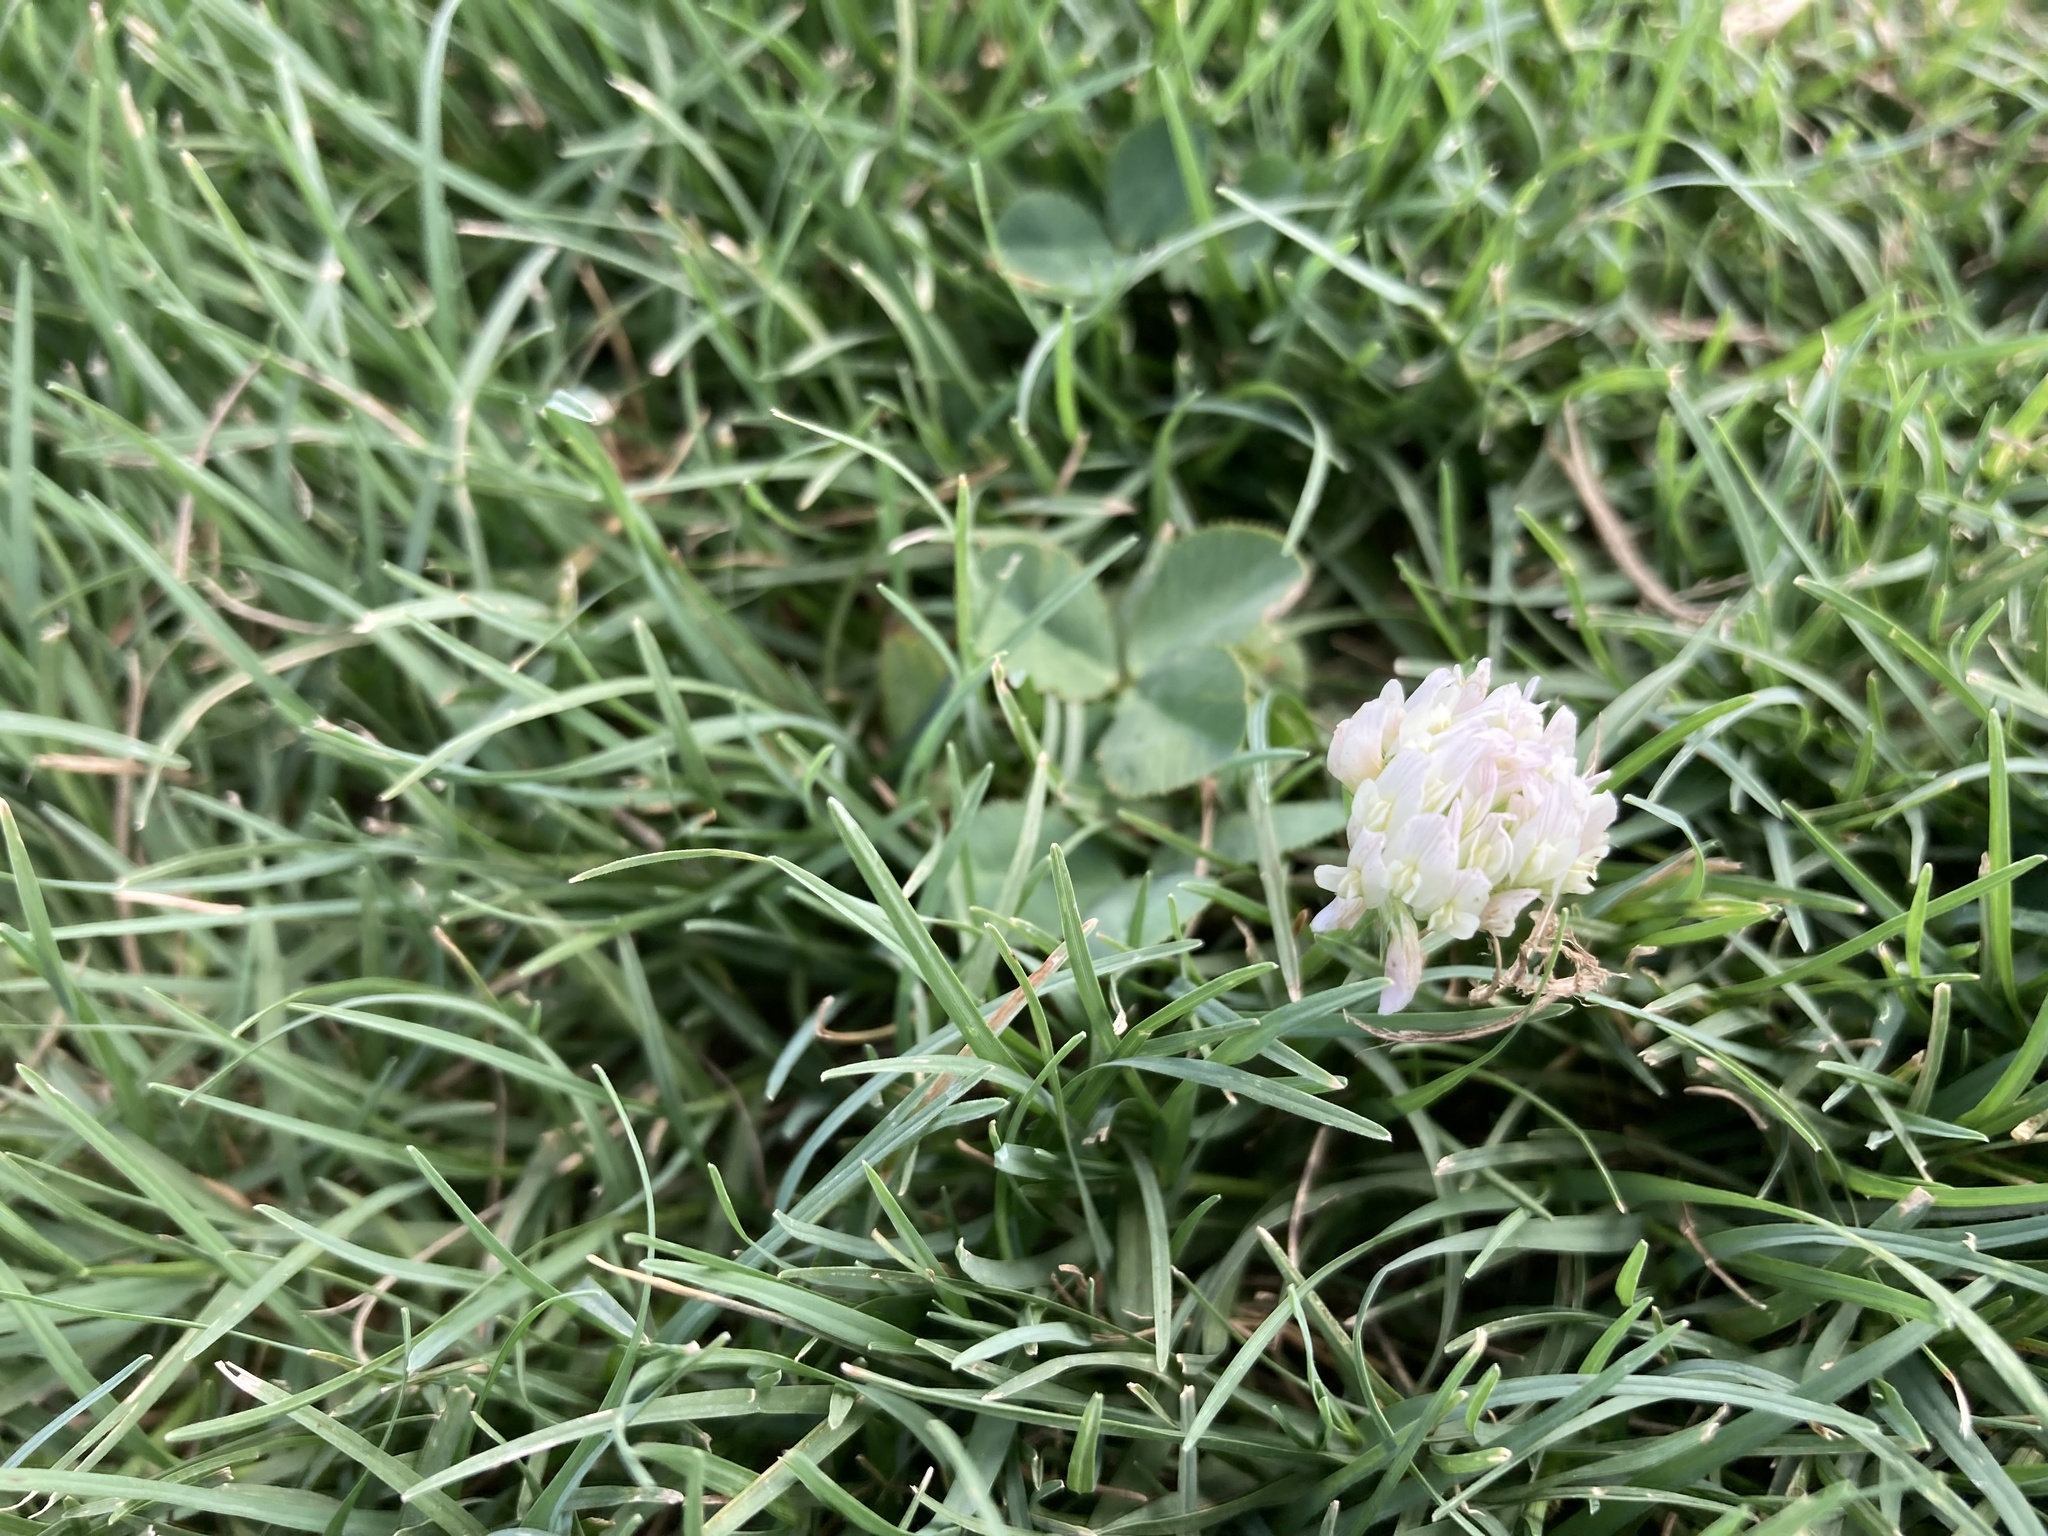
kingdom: Plantae
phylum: Tracheophyta
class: Magnoliopsida
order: Fabales
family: Fabaceae
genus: Trifolium
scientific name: Trifolium repens
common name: White clover
